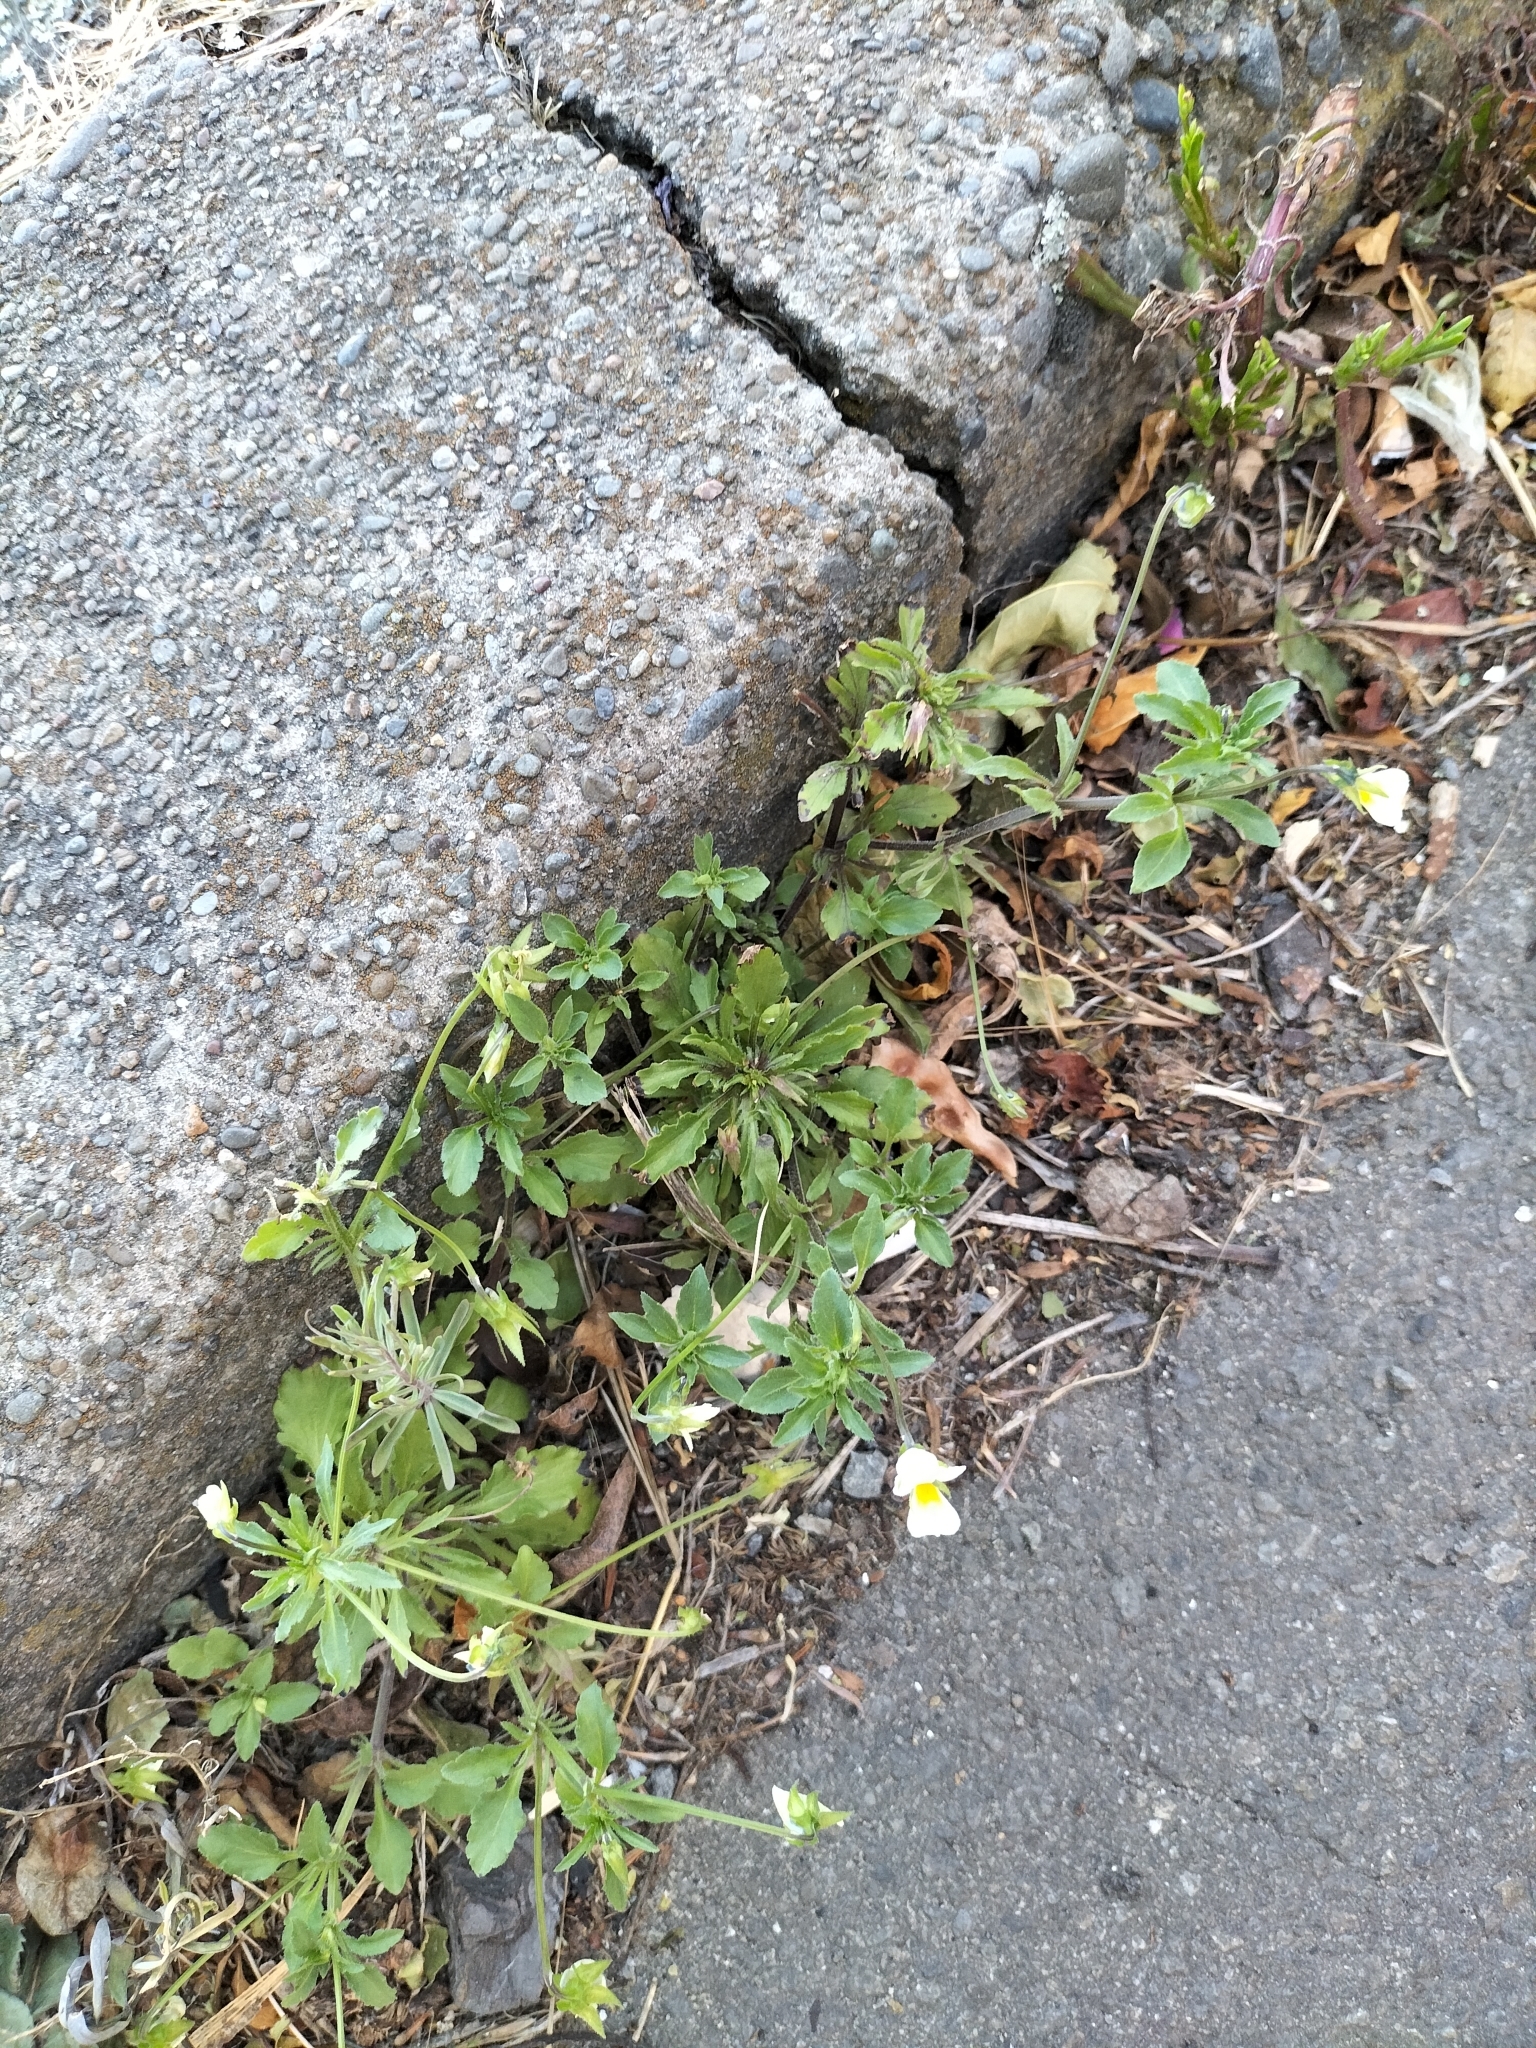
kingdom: Plantae
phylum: Tracheophyta
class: Magnoliopsida
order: Malpighiales
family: Violaceae
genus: Viola
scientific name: Viola arvensis
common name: Field pansy
